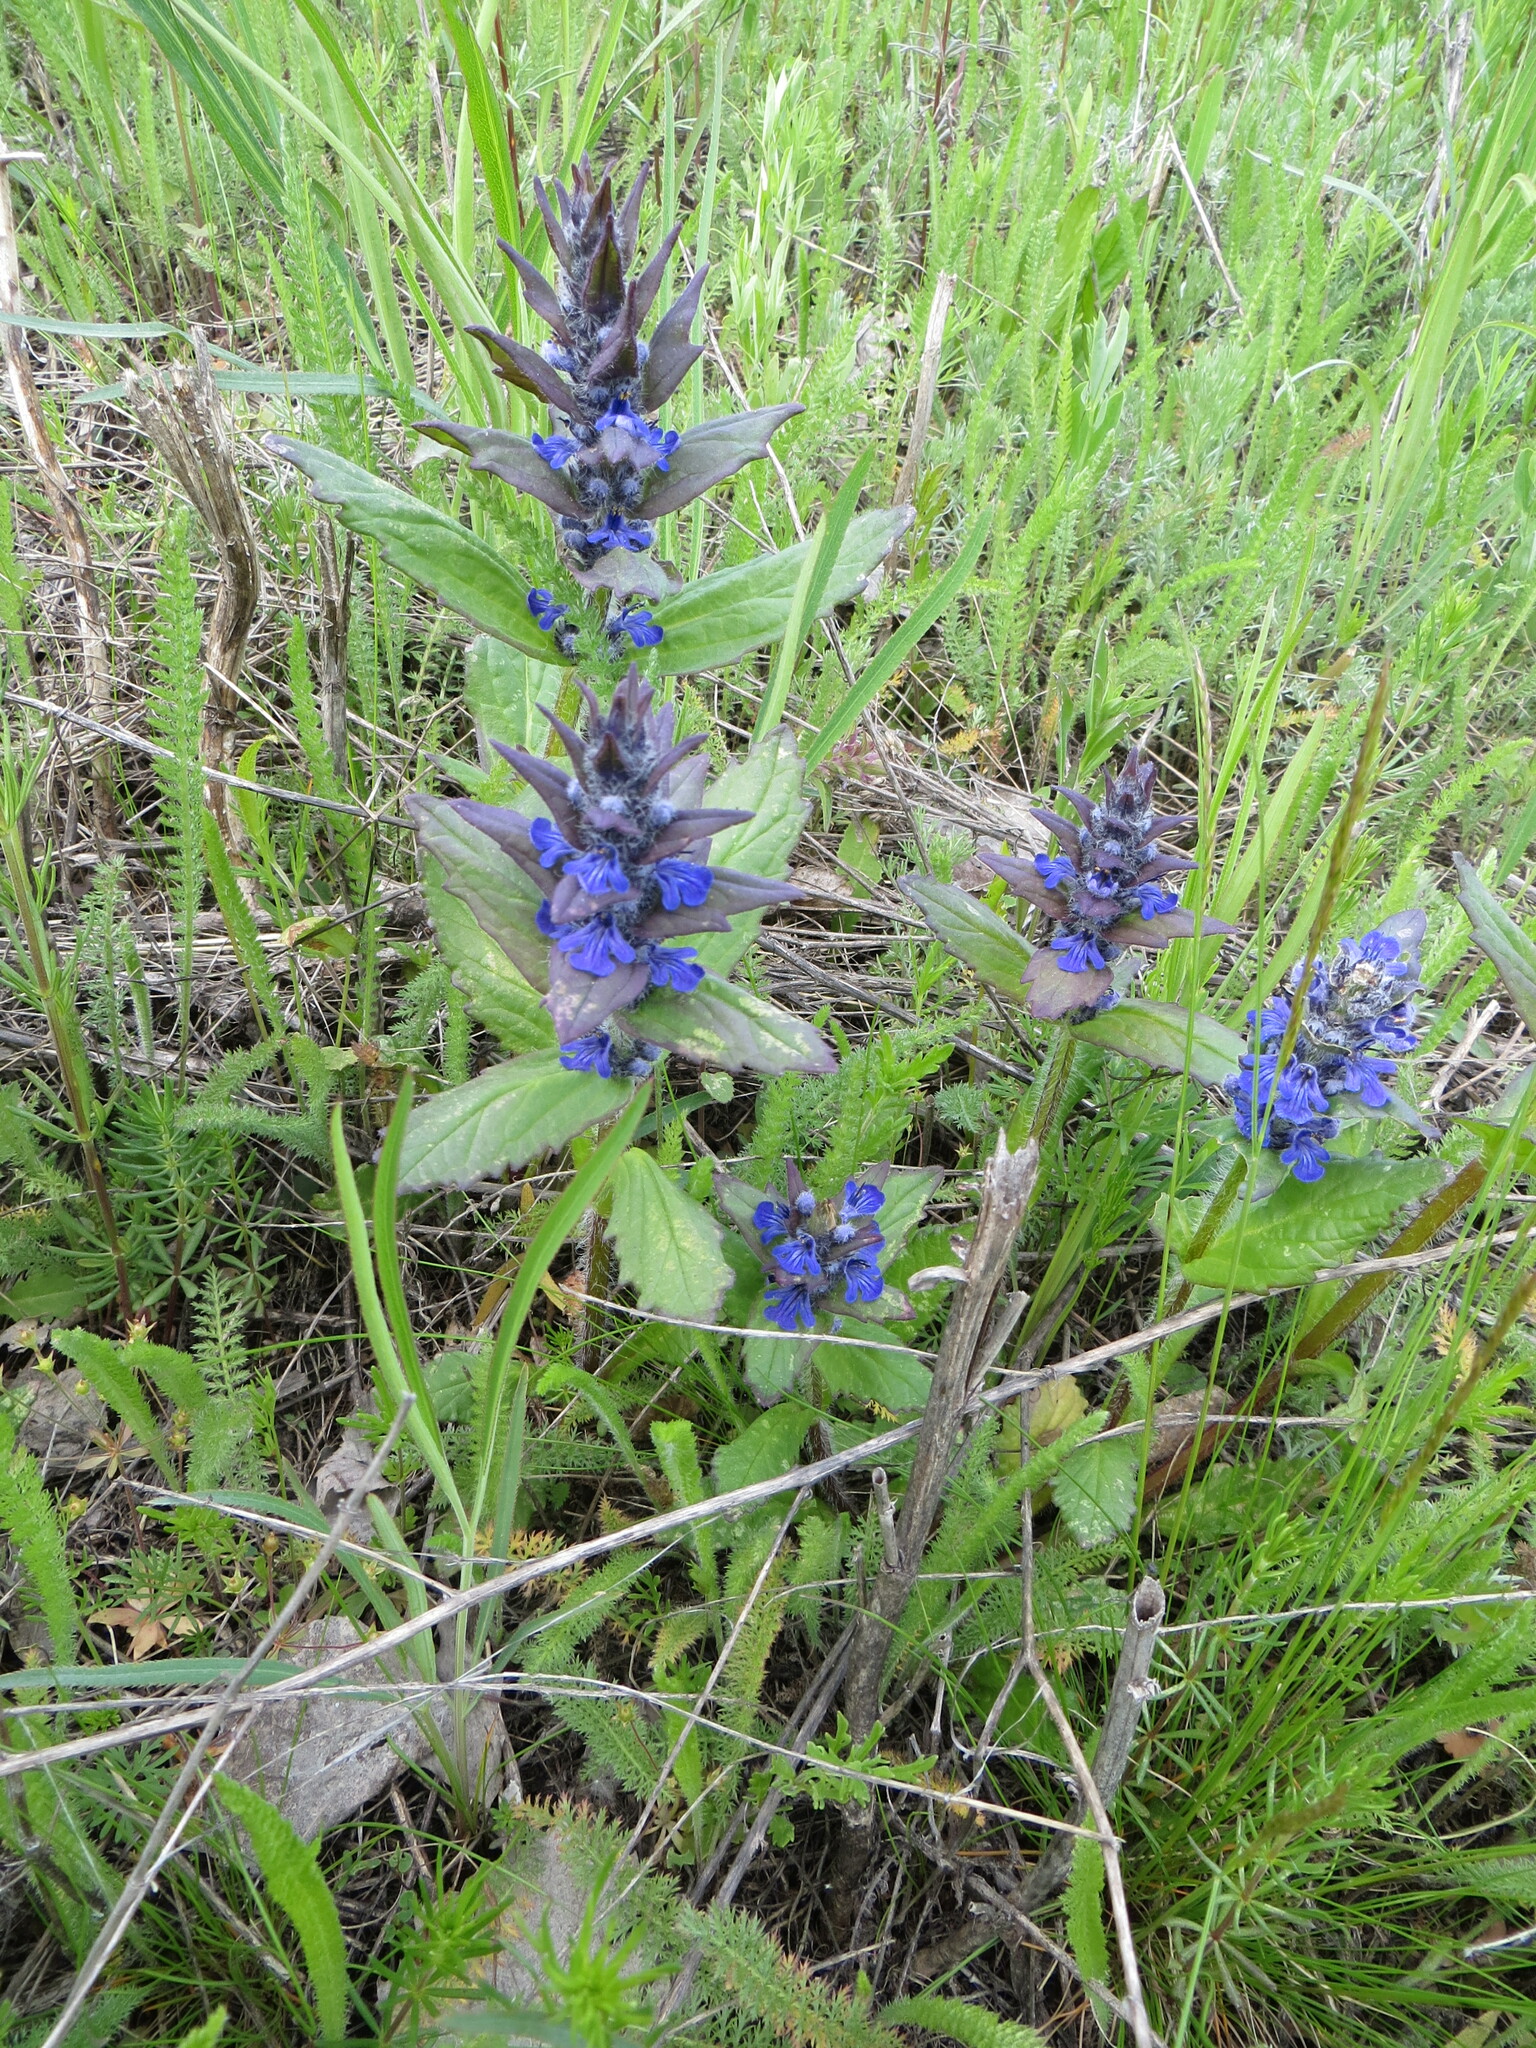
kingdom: Plantae
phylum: Tracheophyta
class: Magnoliopsida
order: Lamiales
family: Lamiaceae
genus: Ajuga
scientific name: Ajuga genevensis
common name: Blue bugle
